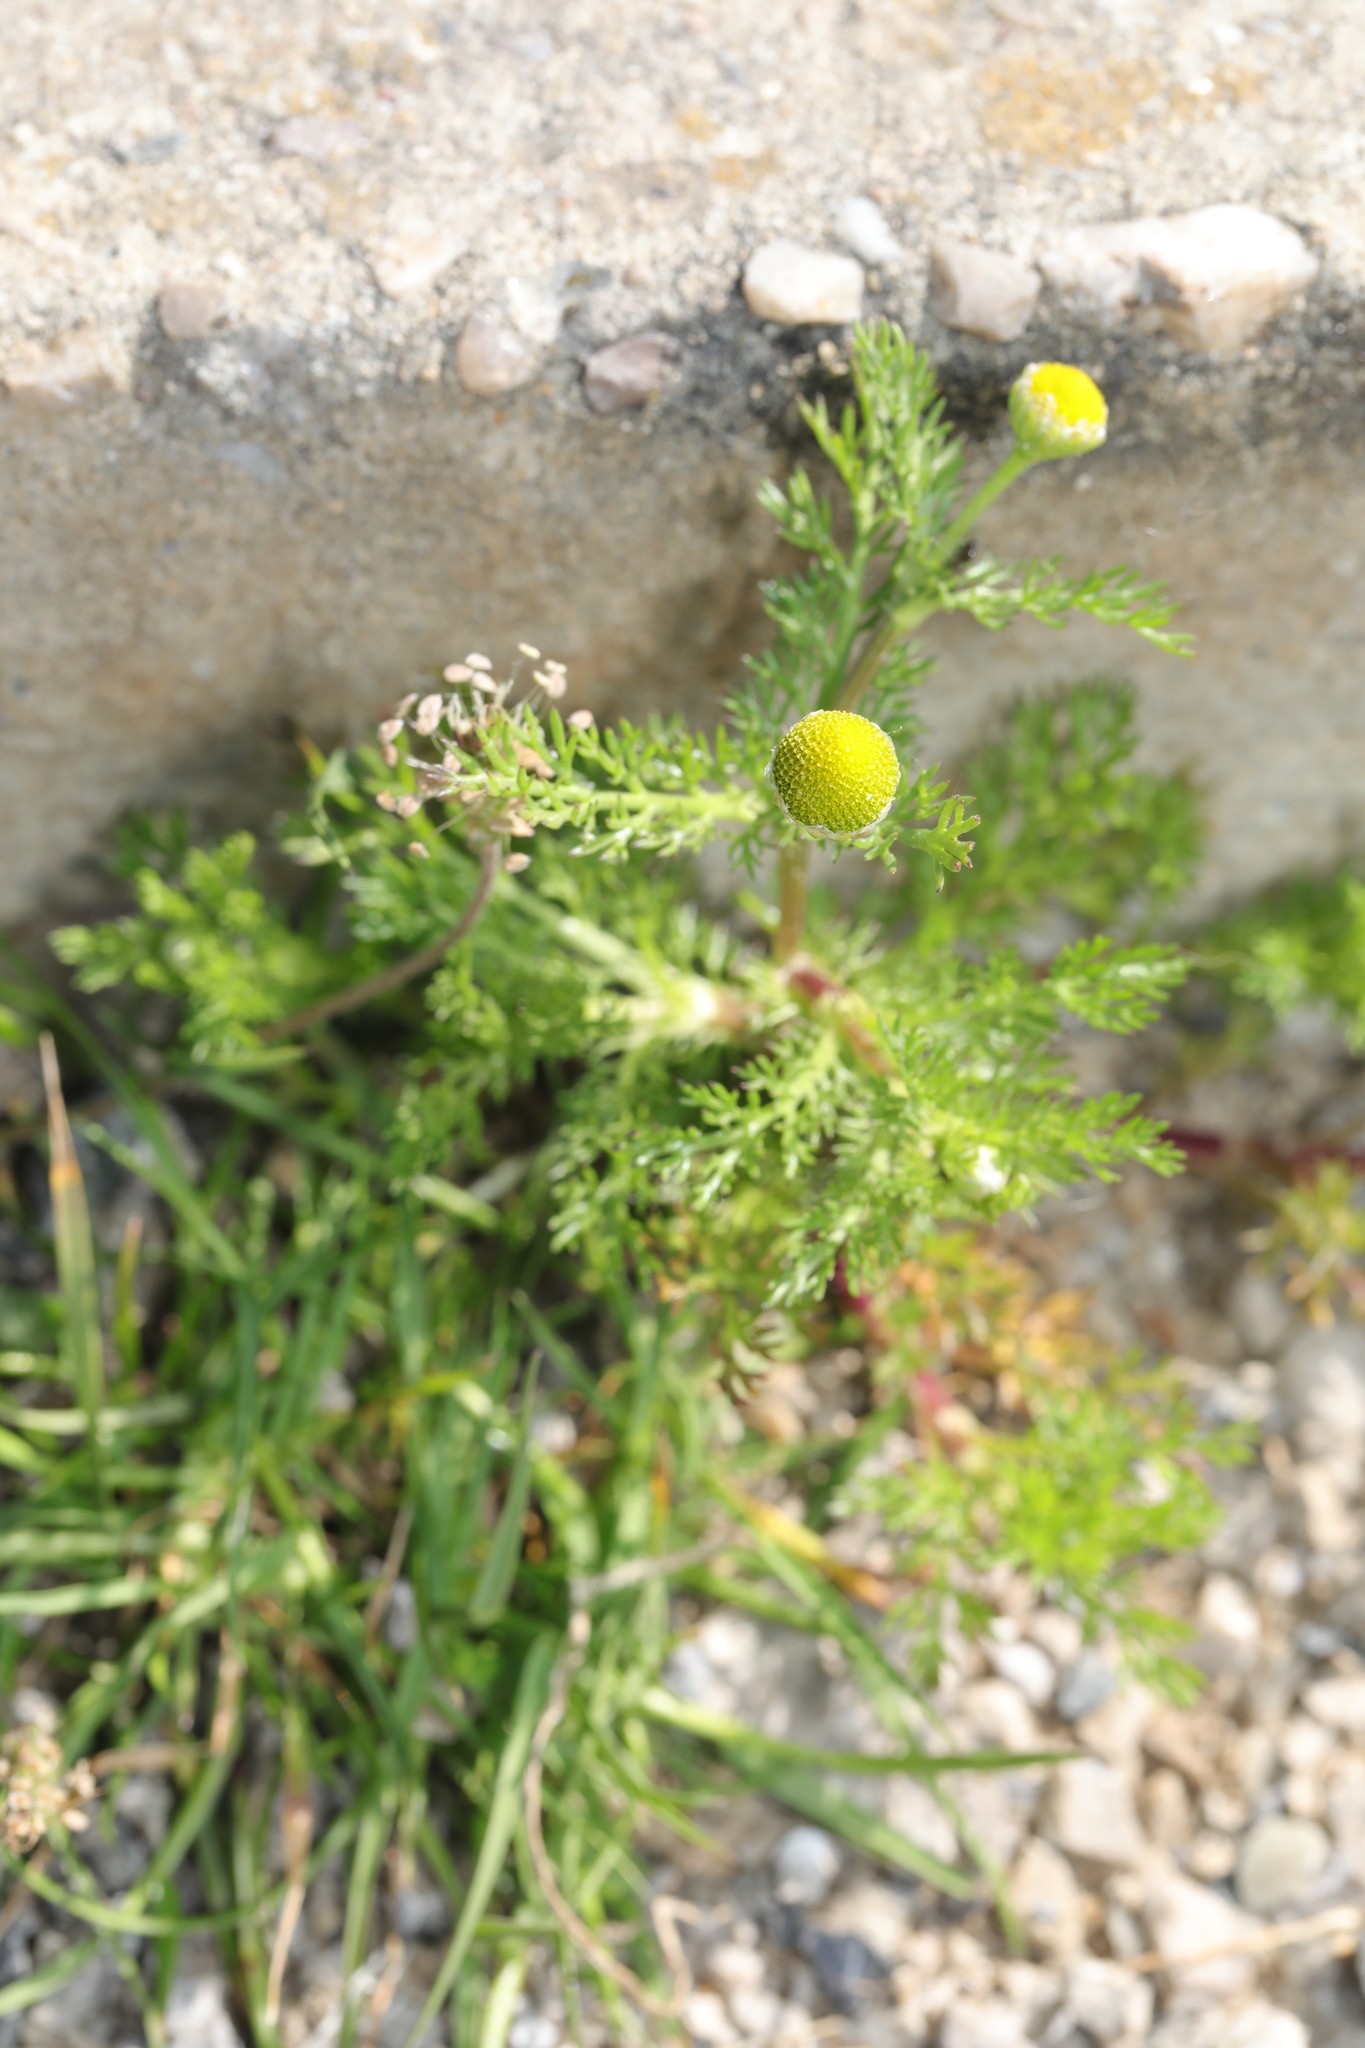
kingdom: Plantae
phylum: Tracheophyta
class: Magnoliopsida
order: Asterales
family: Asteraceae
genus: Matricaria
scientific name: Matricaria discoidea
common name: Disc mayweed
